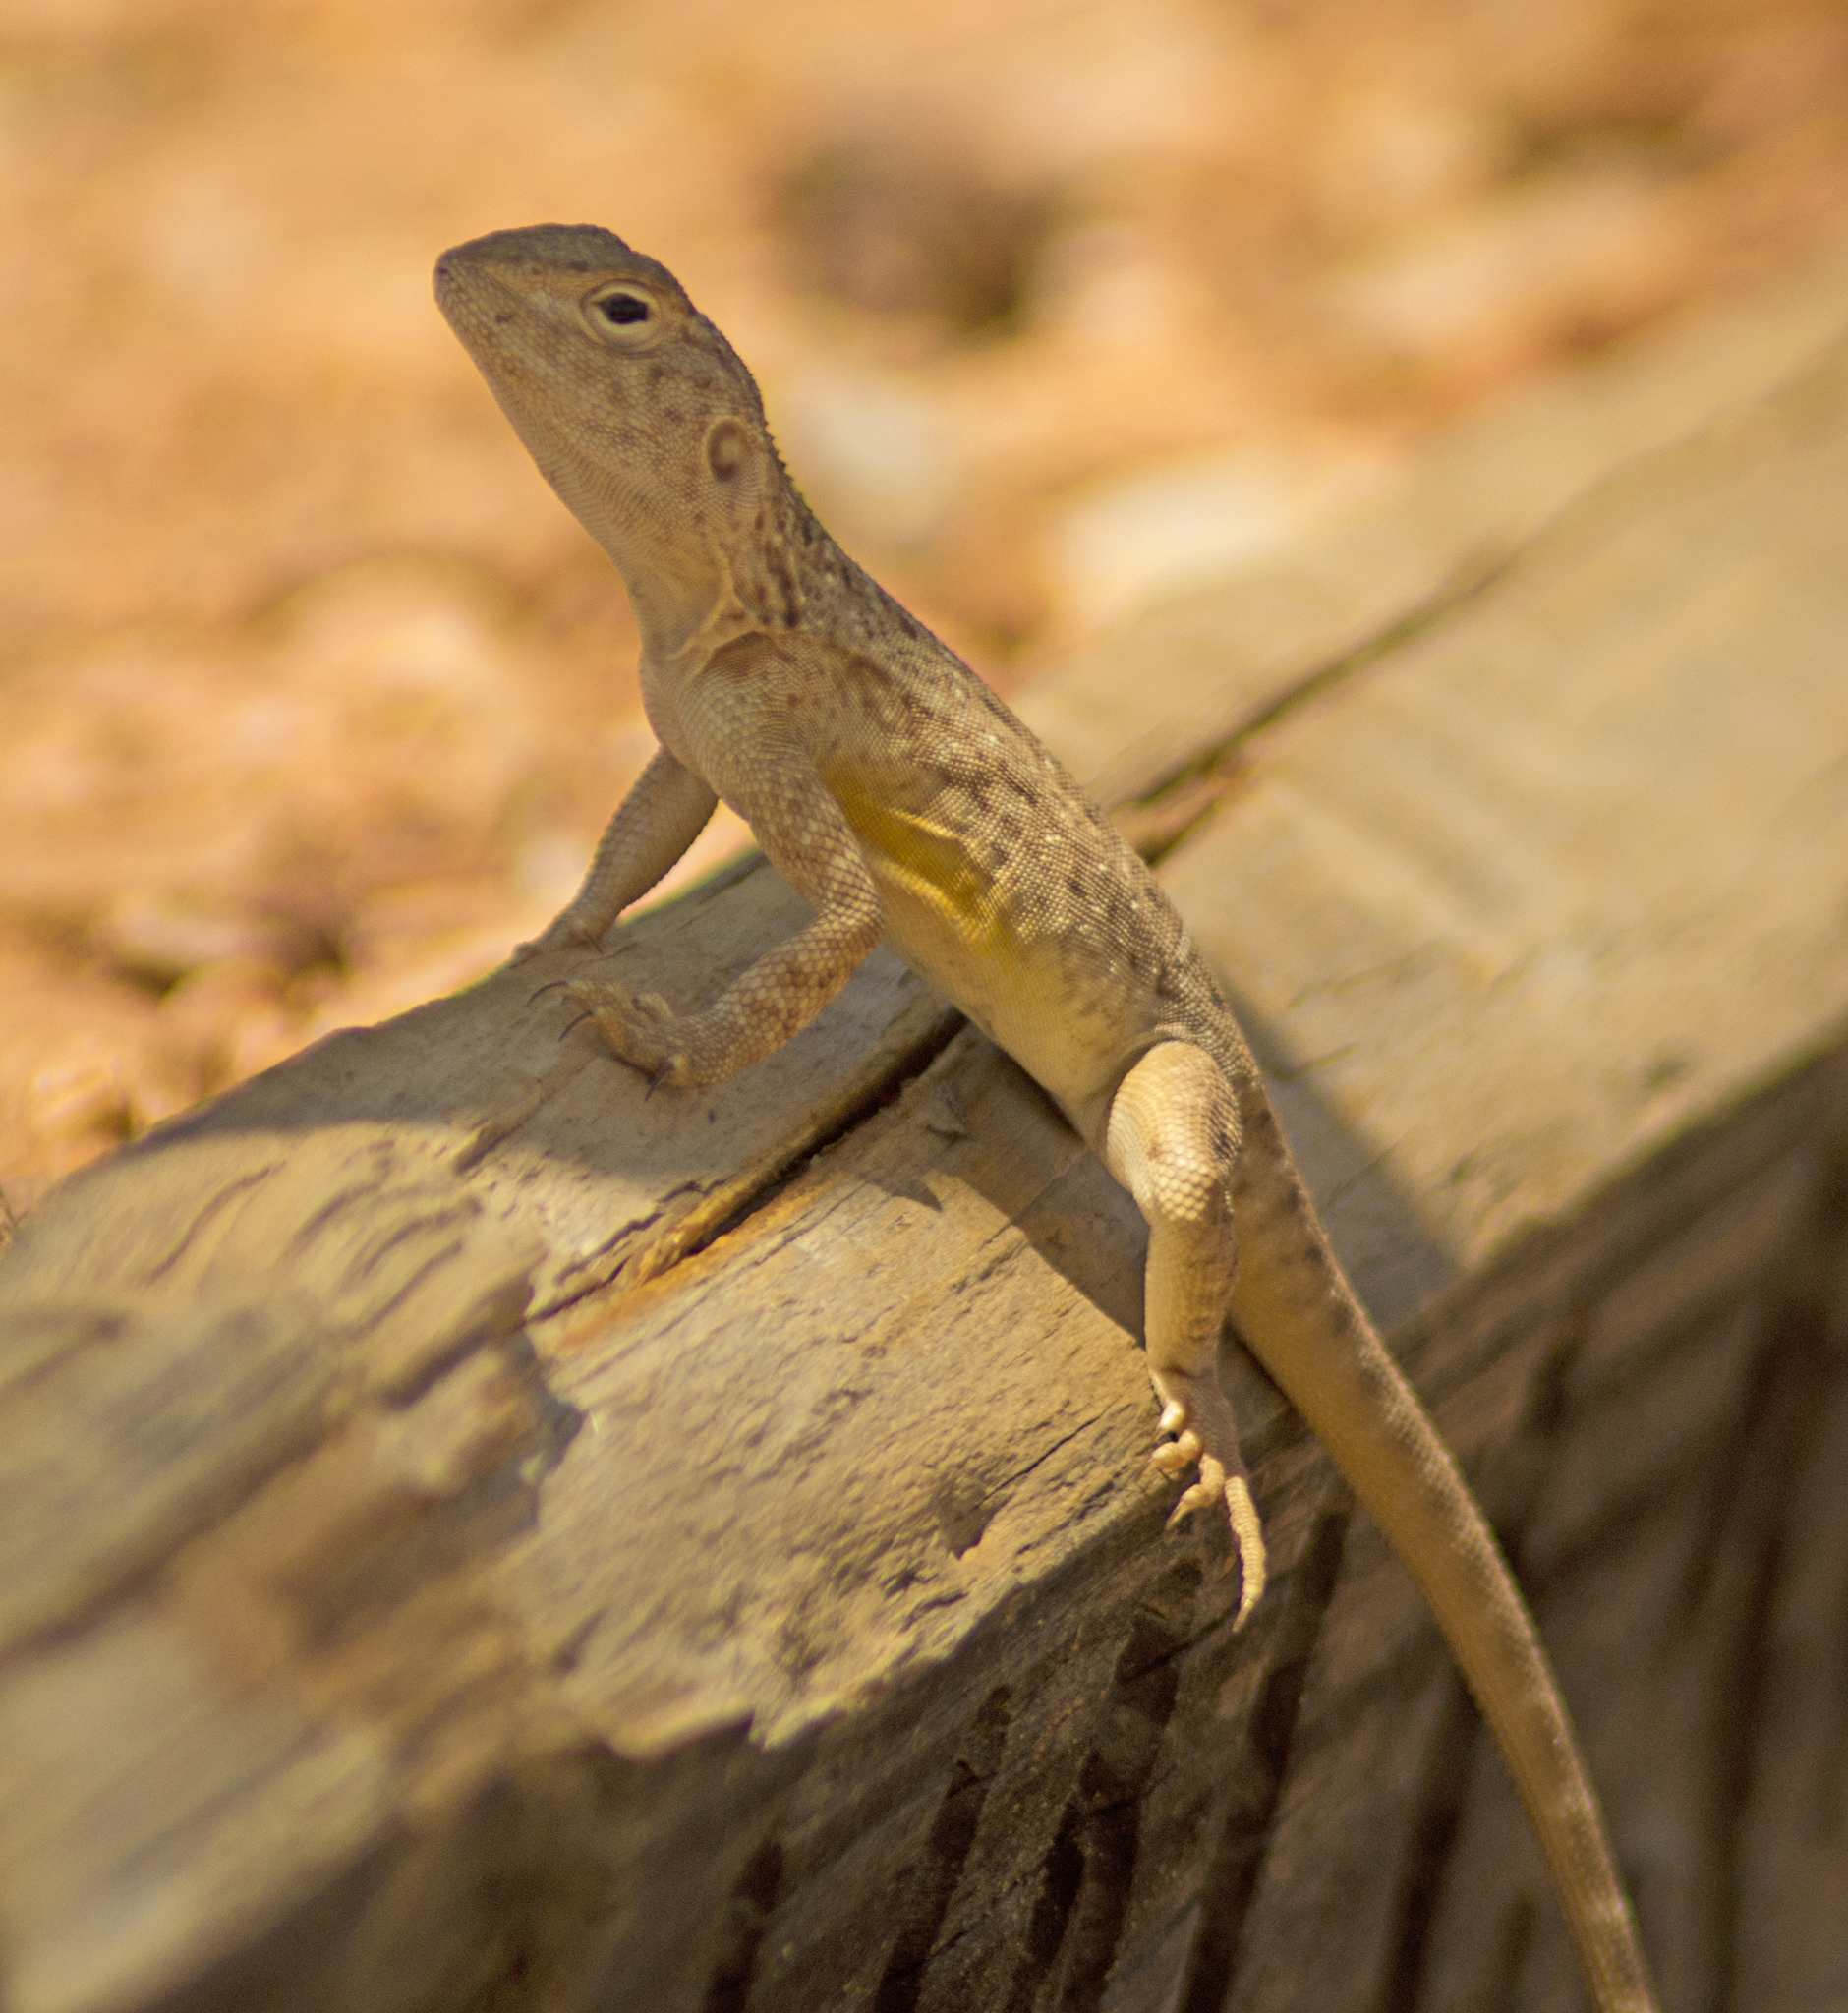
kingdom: Animalia
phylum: Chordata
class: Squamata
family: Agamidae
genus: Ctenophorus
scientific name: Ctenophorus slateri
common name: Slater’s dragon
